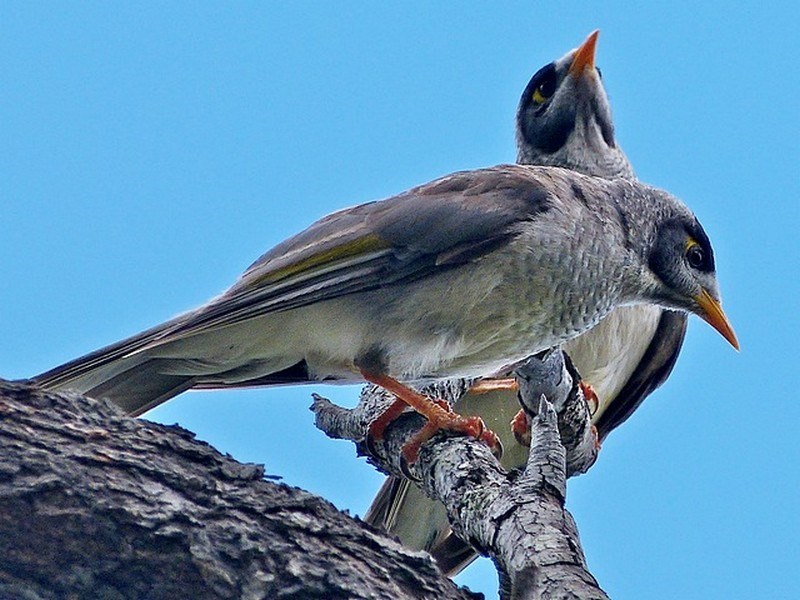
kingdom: Animalia
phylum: Chordata
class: Aves
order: Passeriformes
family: Meliphagidae
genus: Manorina
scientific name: Manorina melanocephala
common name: Noisy miner
